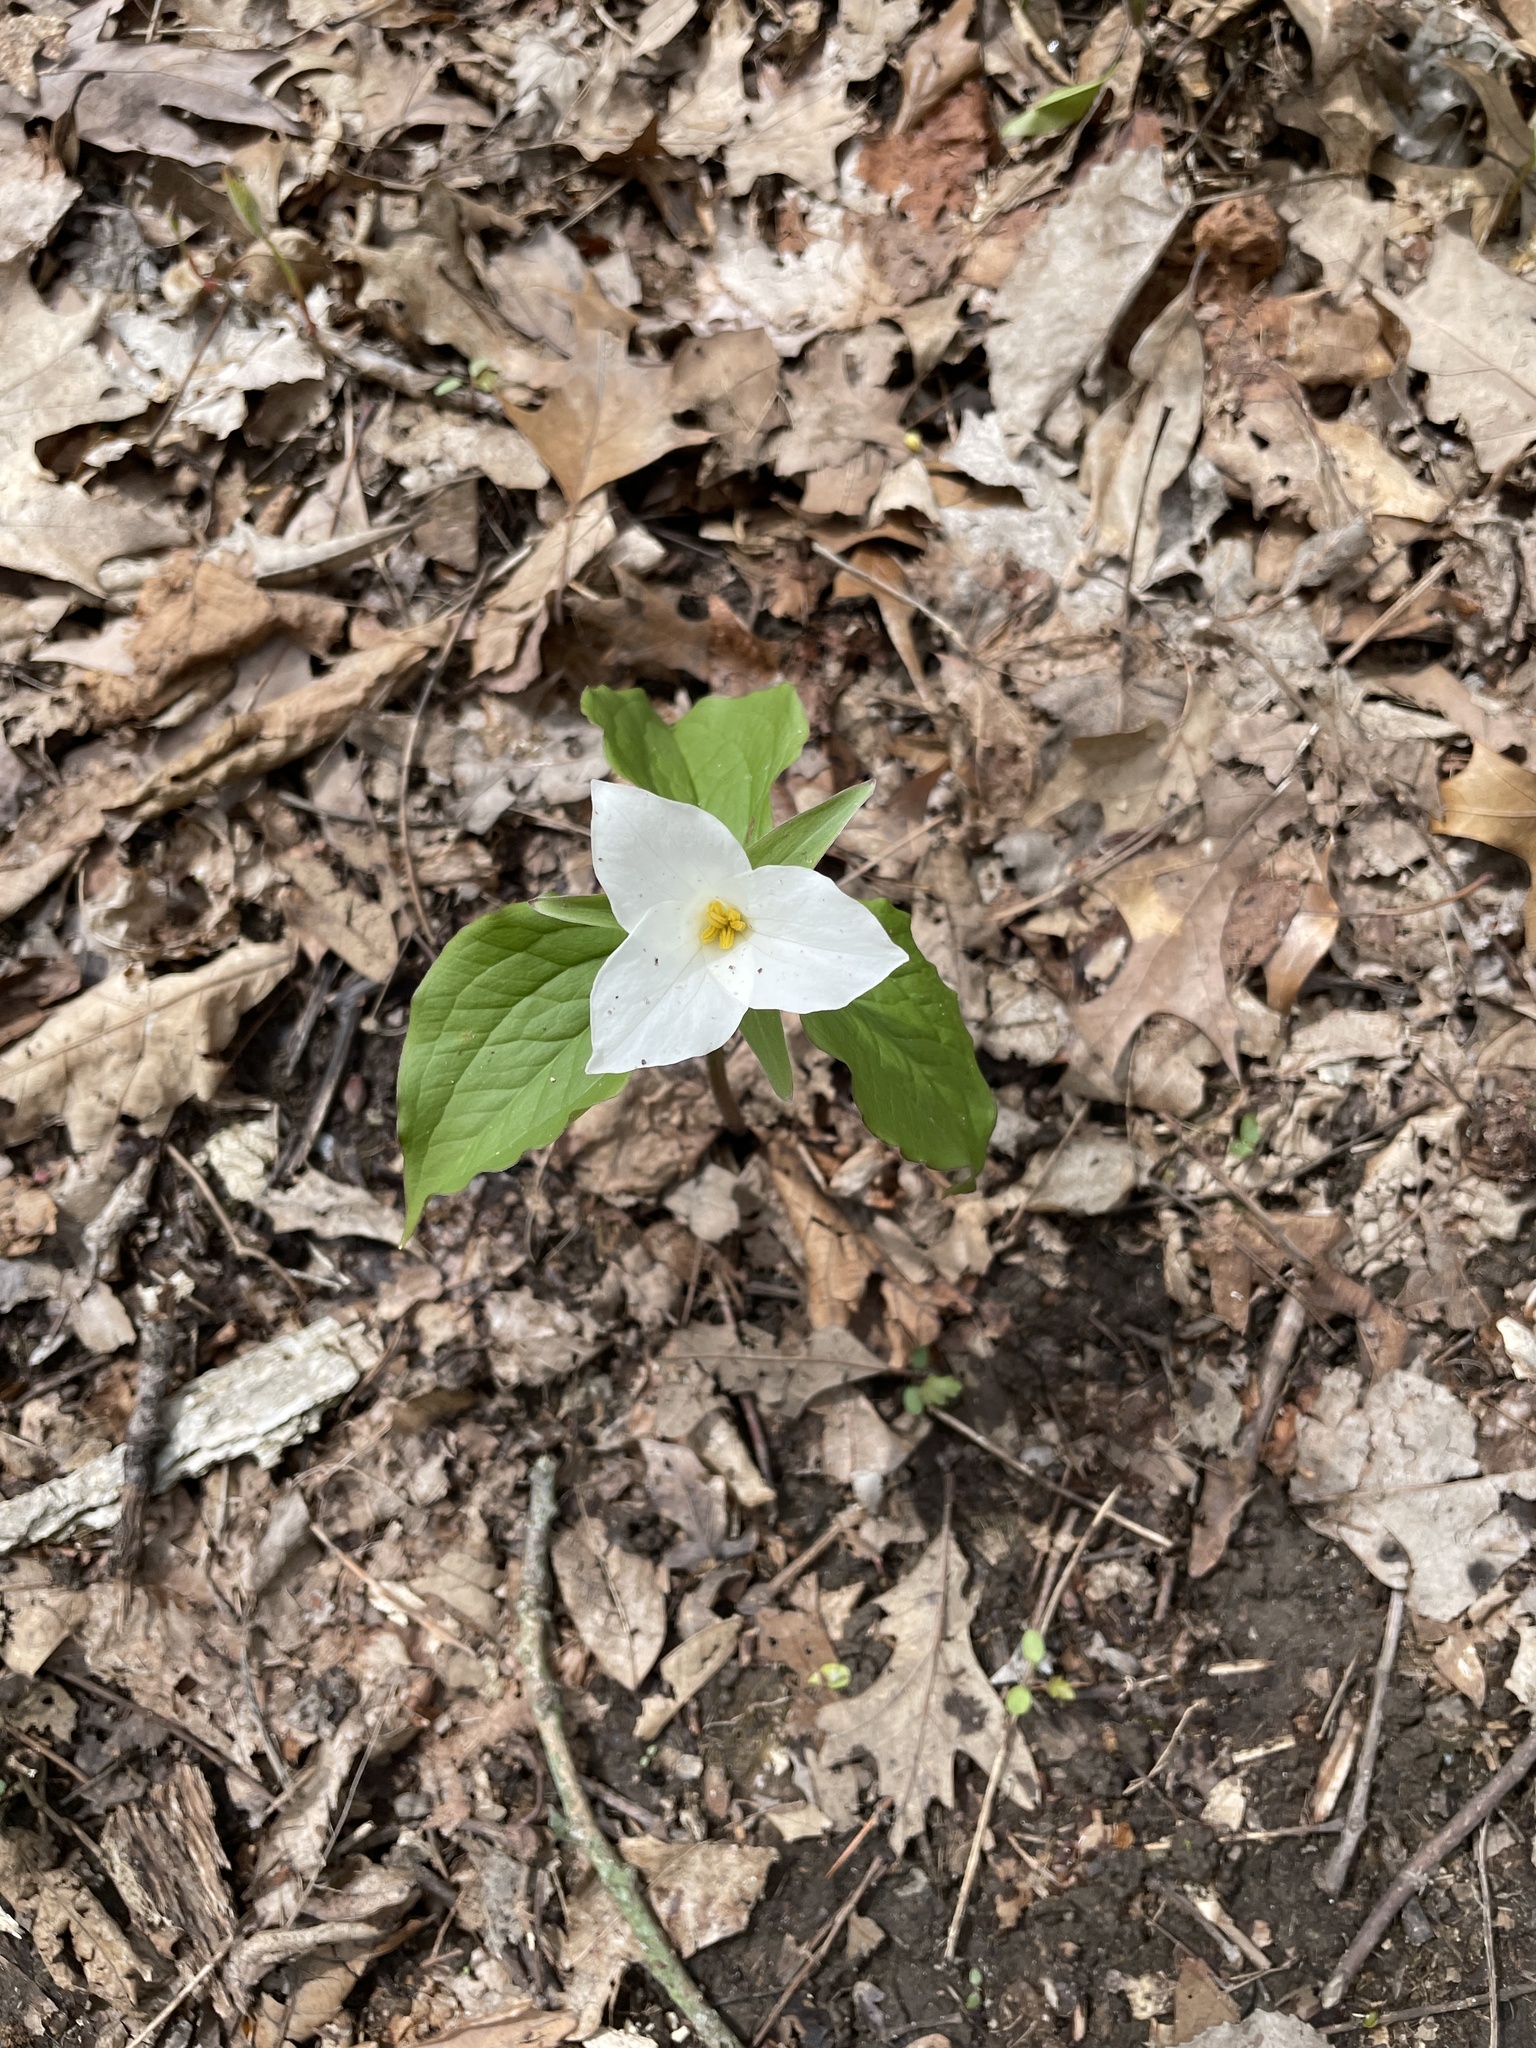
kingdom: Plantae
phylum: Tracheophyta
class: Liliopsida
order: Liliales
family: Melanthiaceae
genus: Trillium
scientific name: Trillium grandiflorum
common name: Great white trillium
